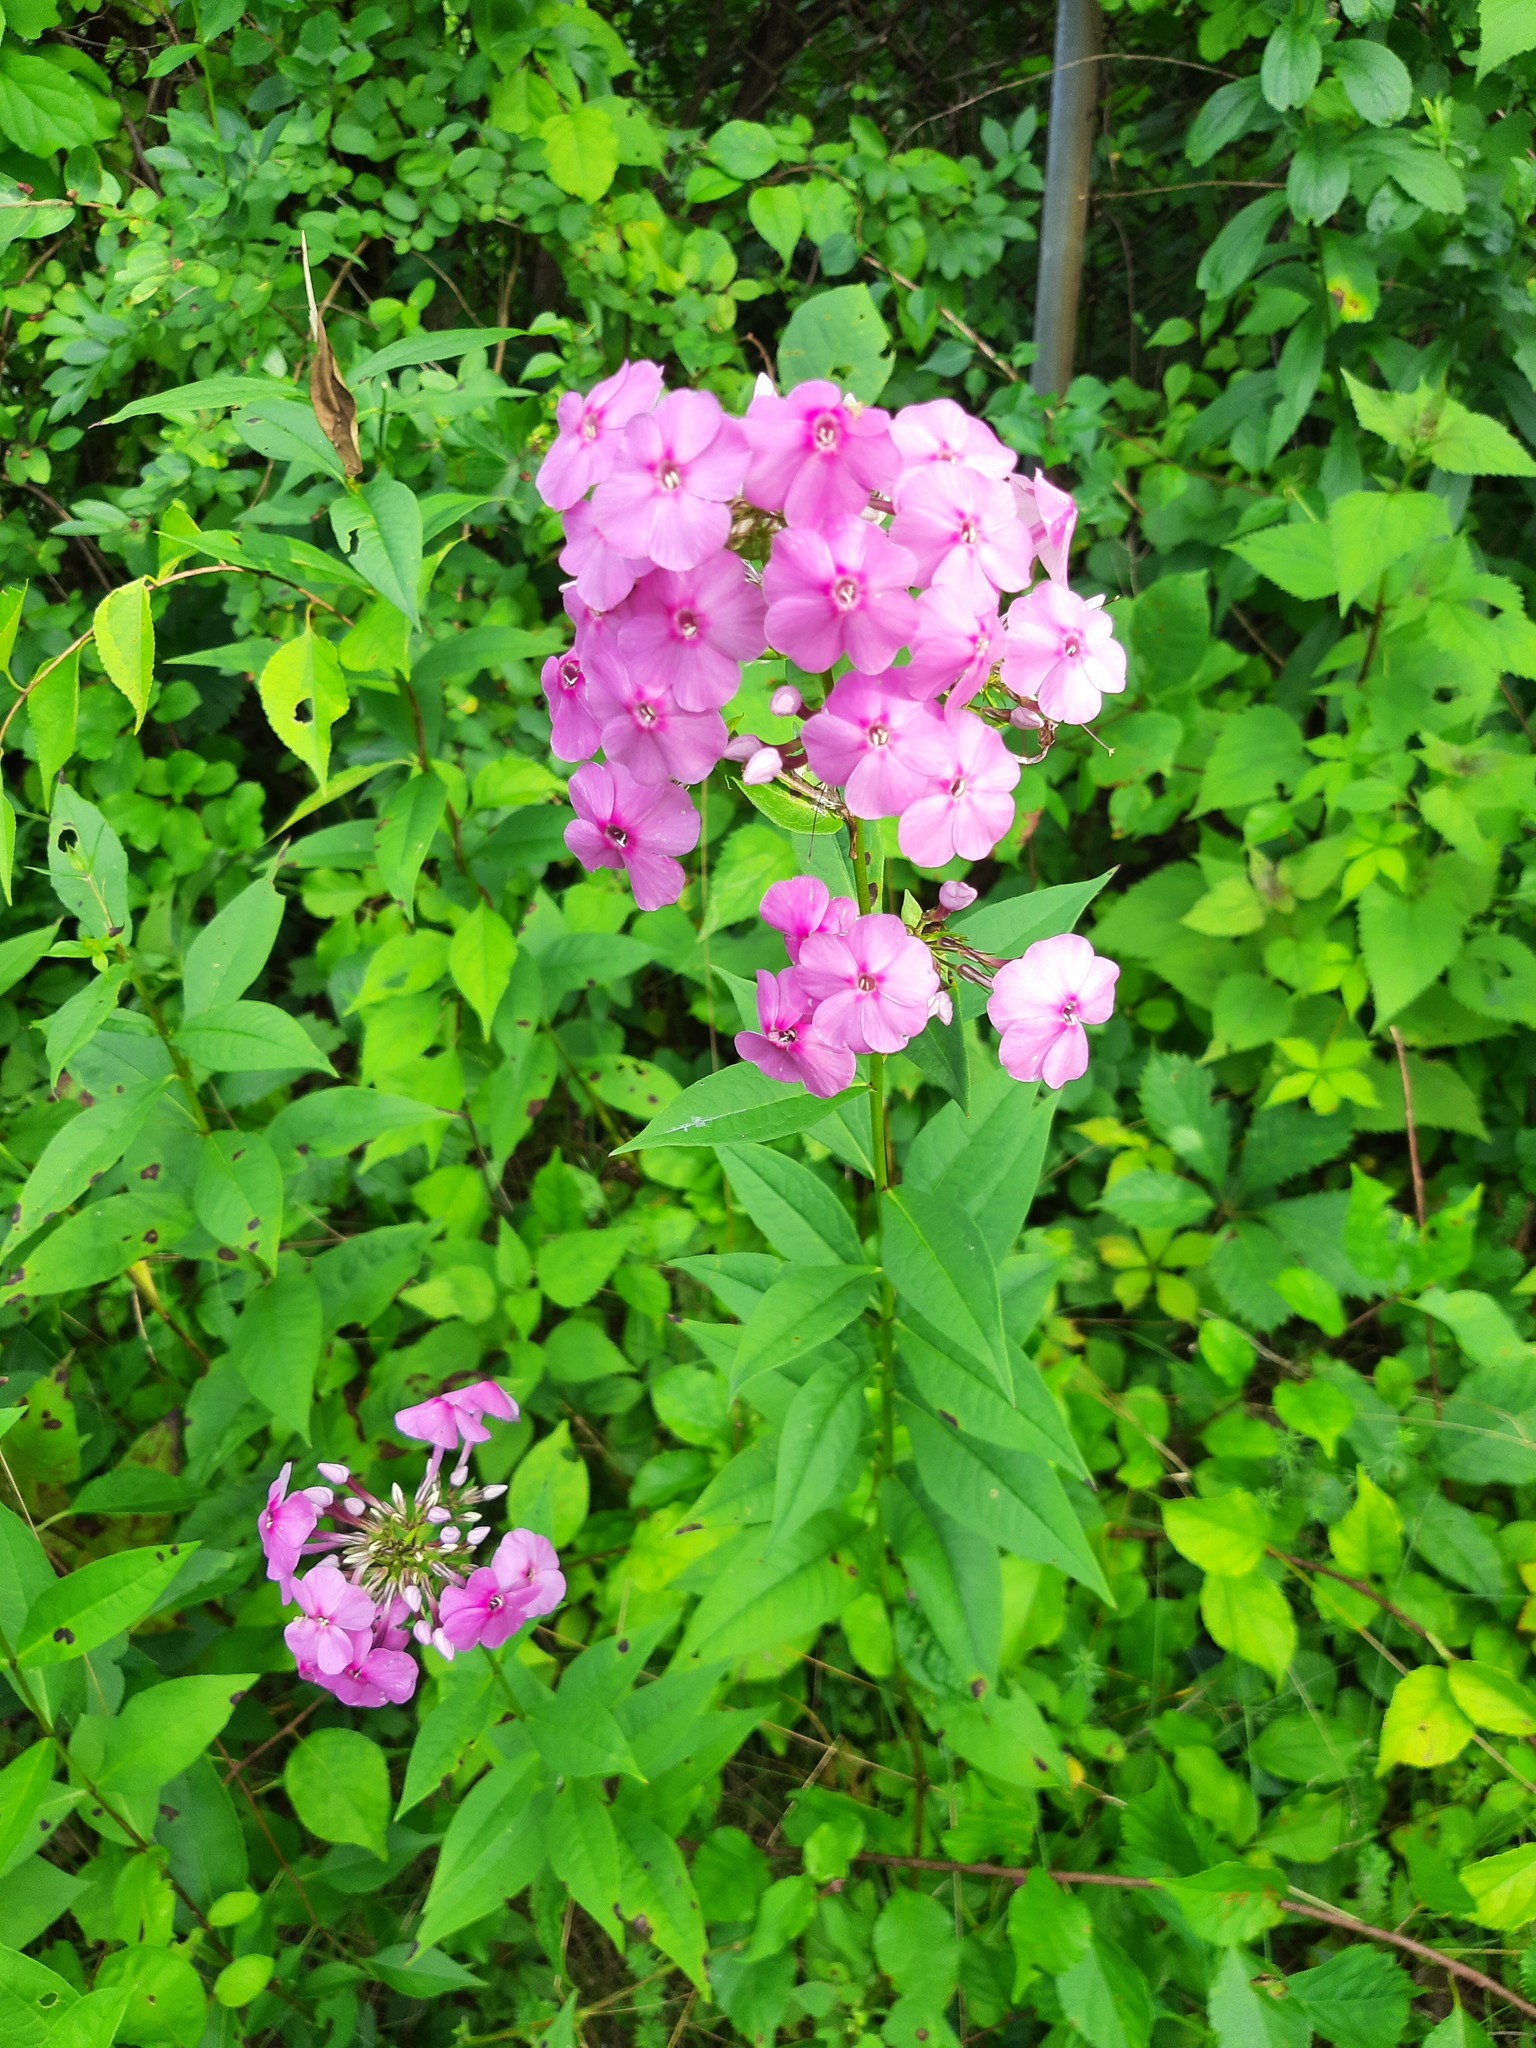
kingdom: Plantae
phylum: Tracheophyta
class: Magnoliopsida
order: Ericales
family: Polemoniaceae
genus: Phlox
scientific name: Phlox paniculata
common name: Fall phlox
